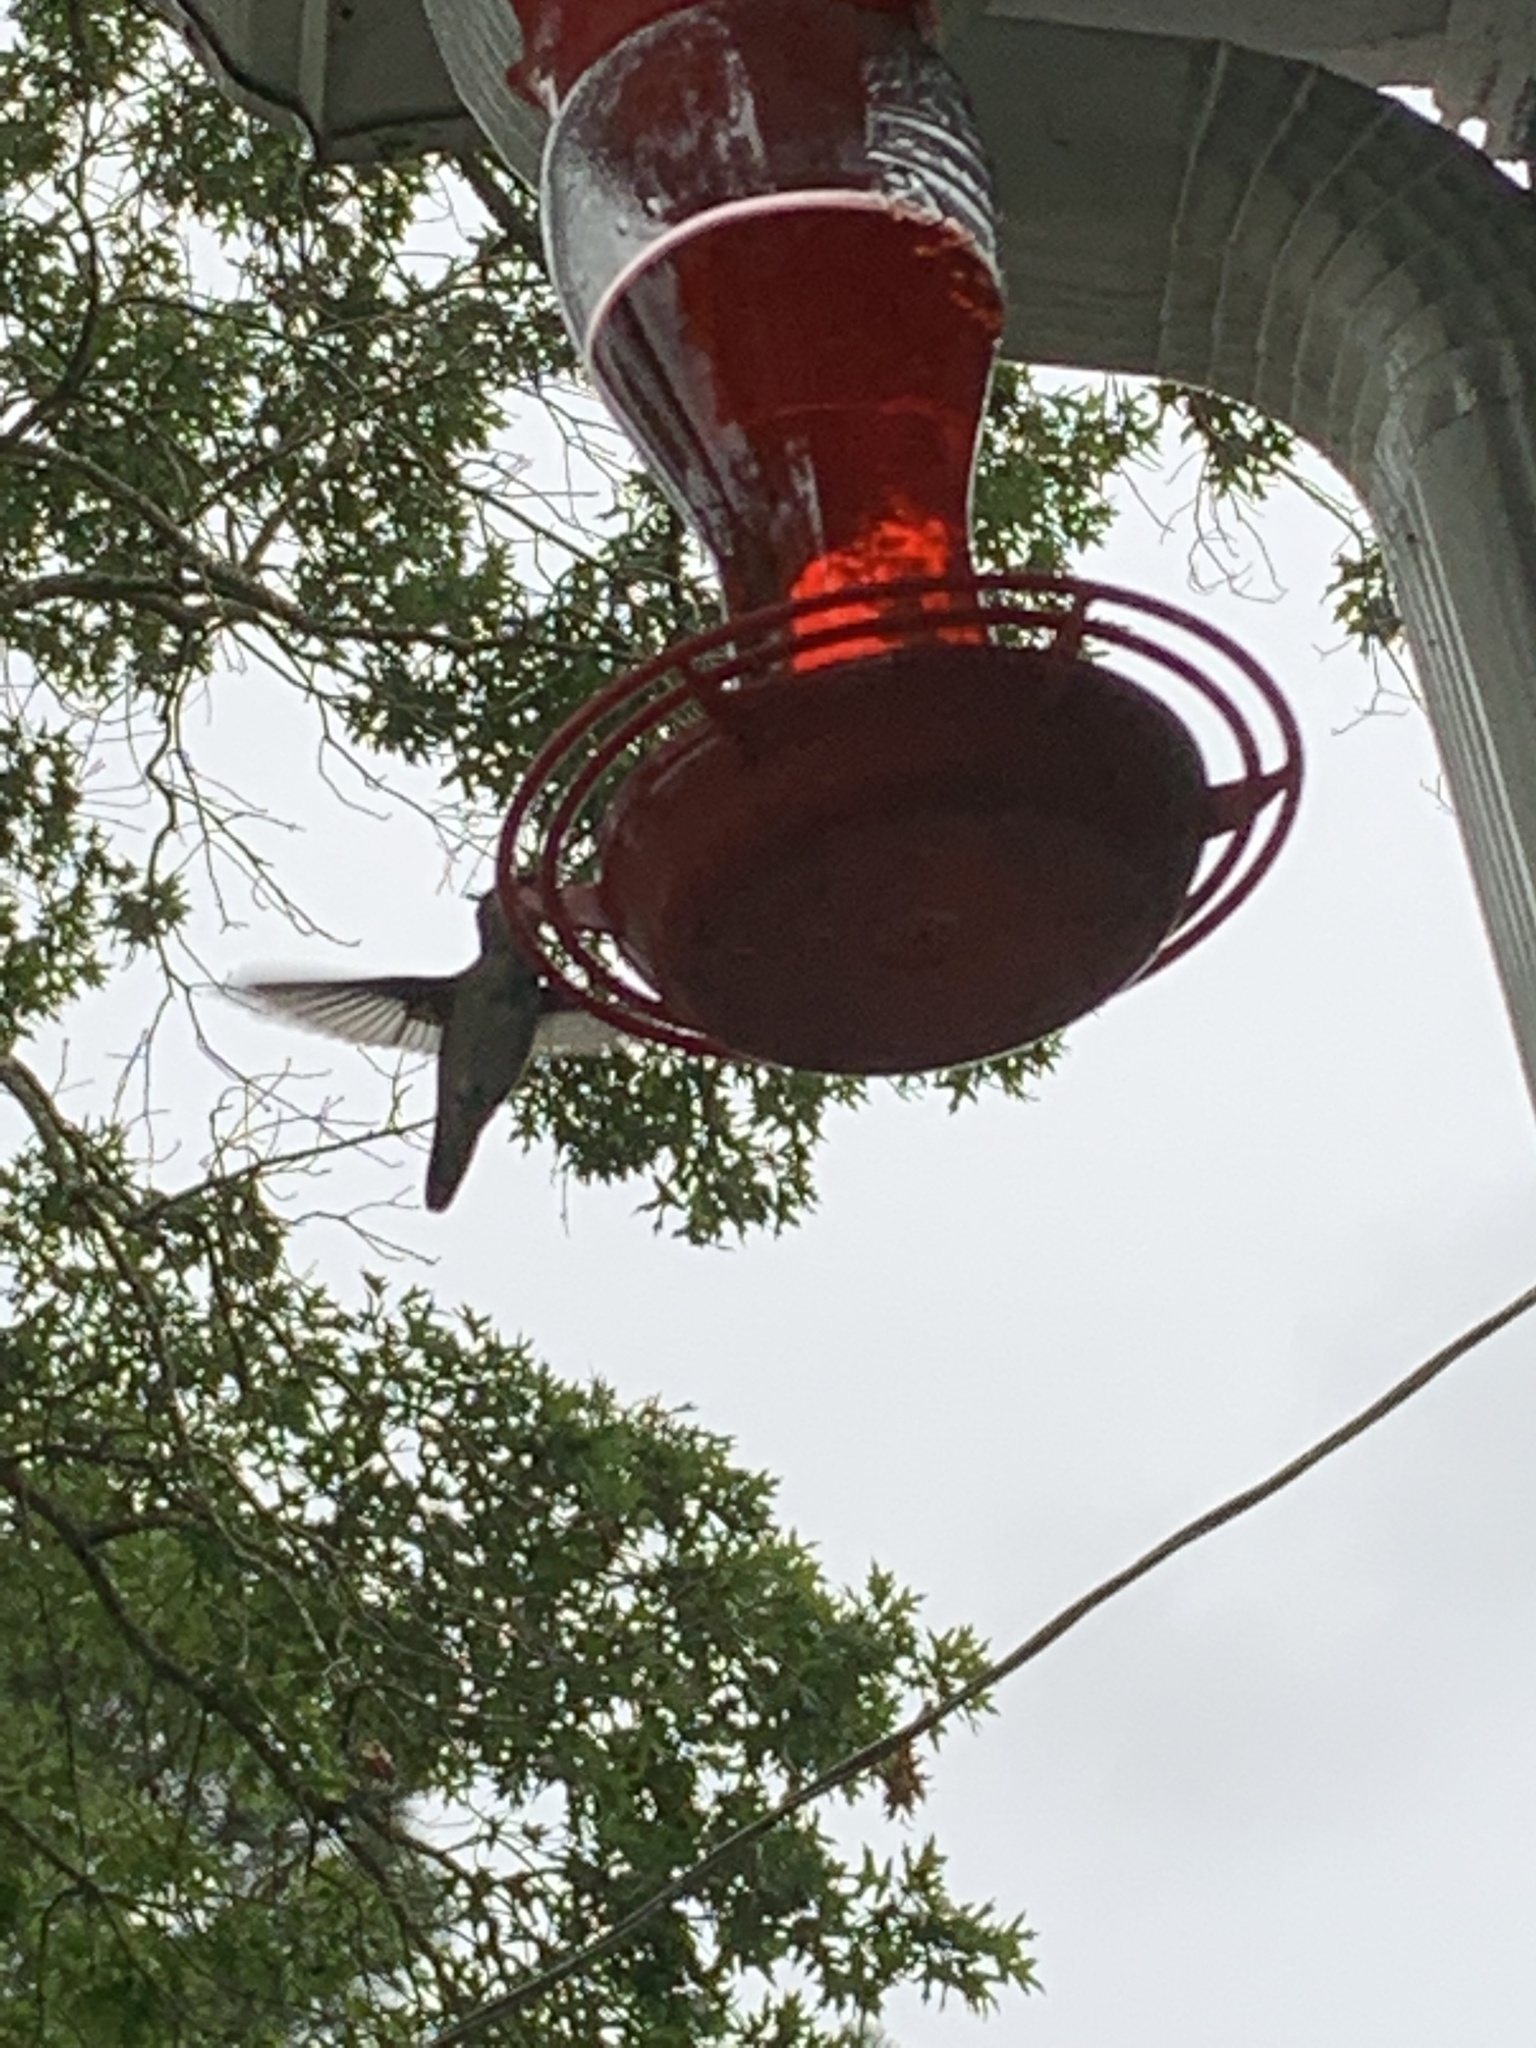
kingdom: Animalia
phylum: Chordata
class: Aves
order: Apodiformes
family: Trochilidae
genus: Archilochus
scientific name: Archilochus colubris
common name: Ruby-throated hummingbird
